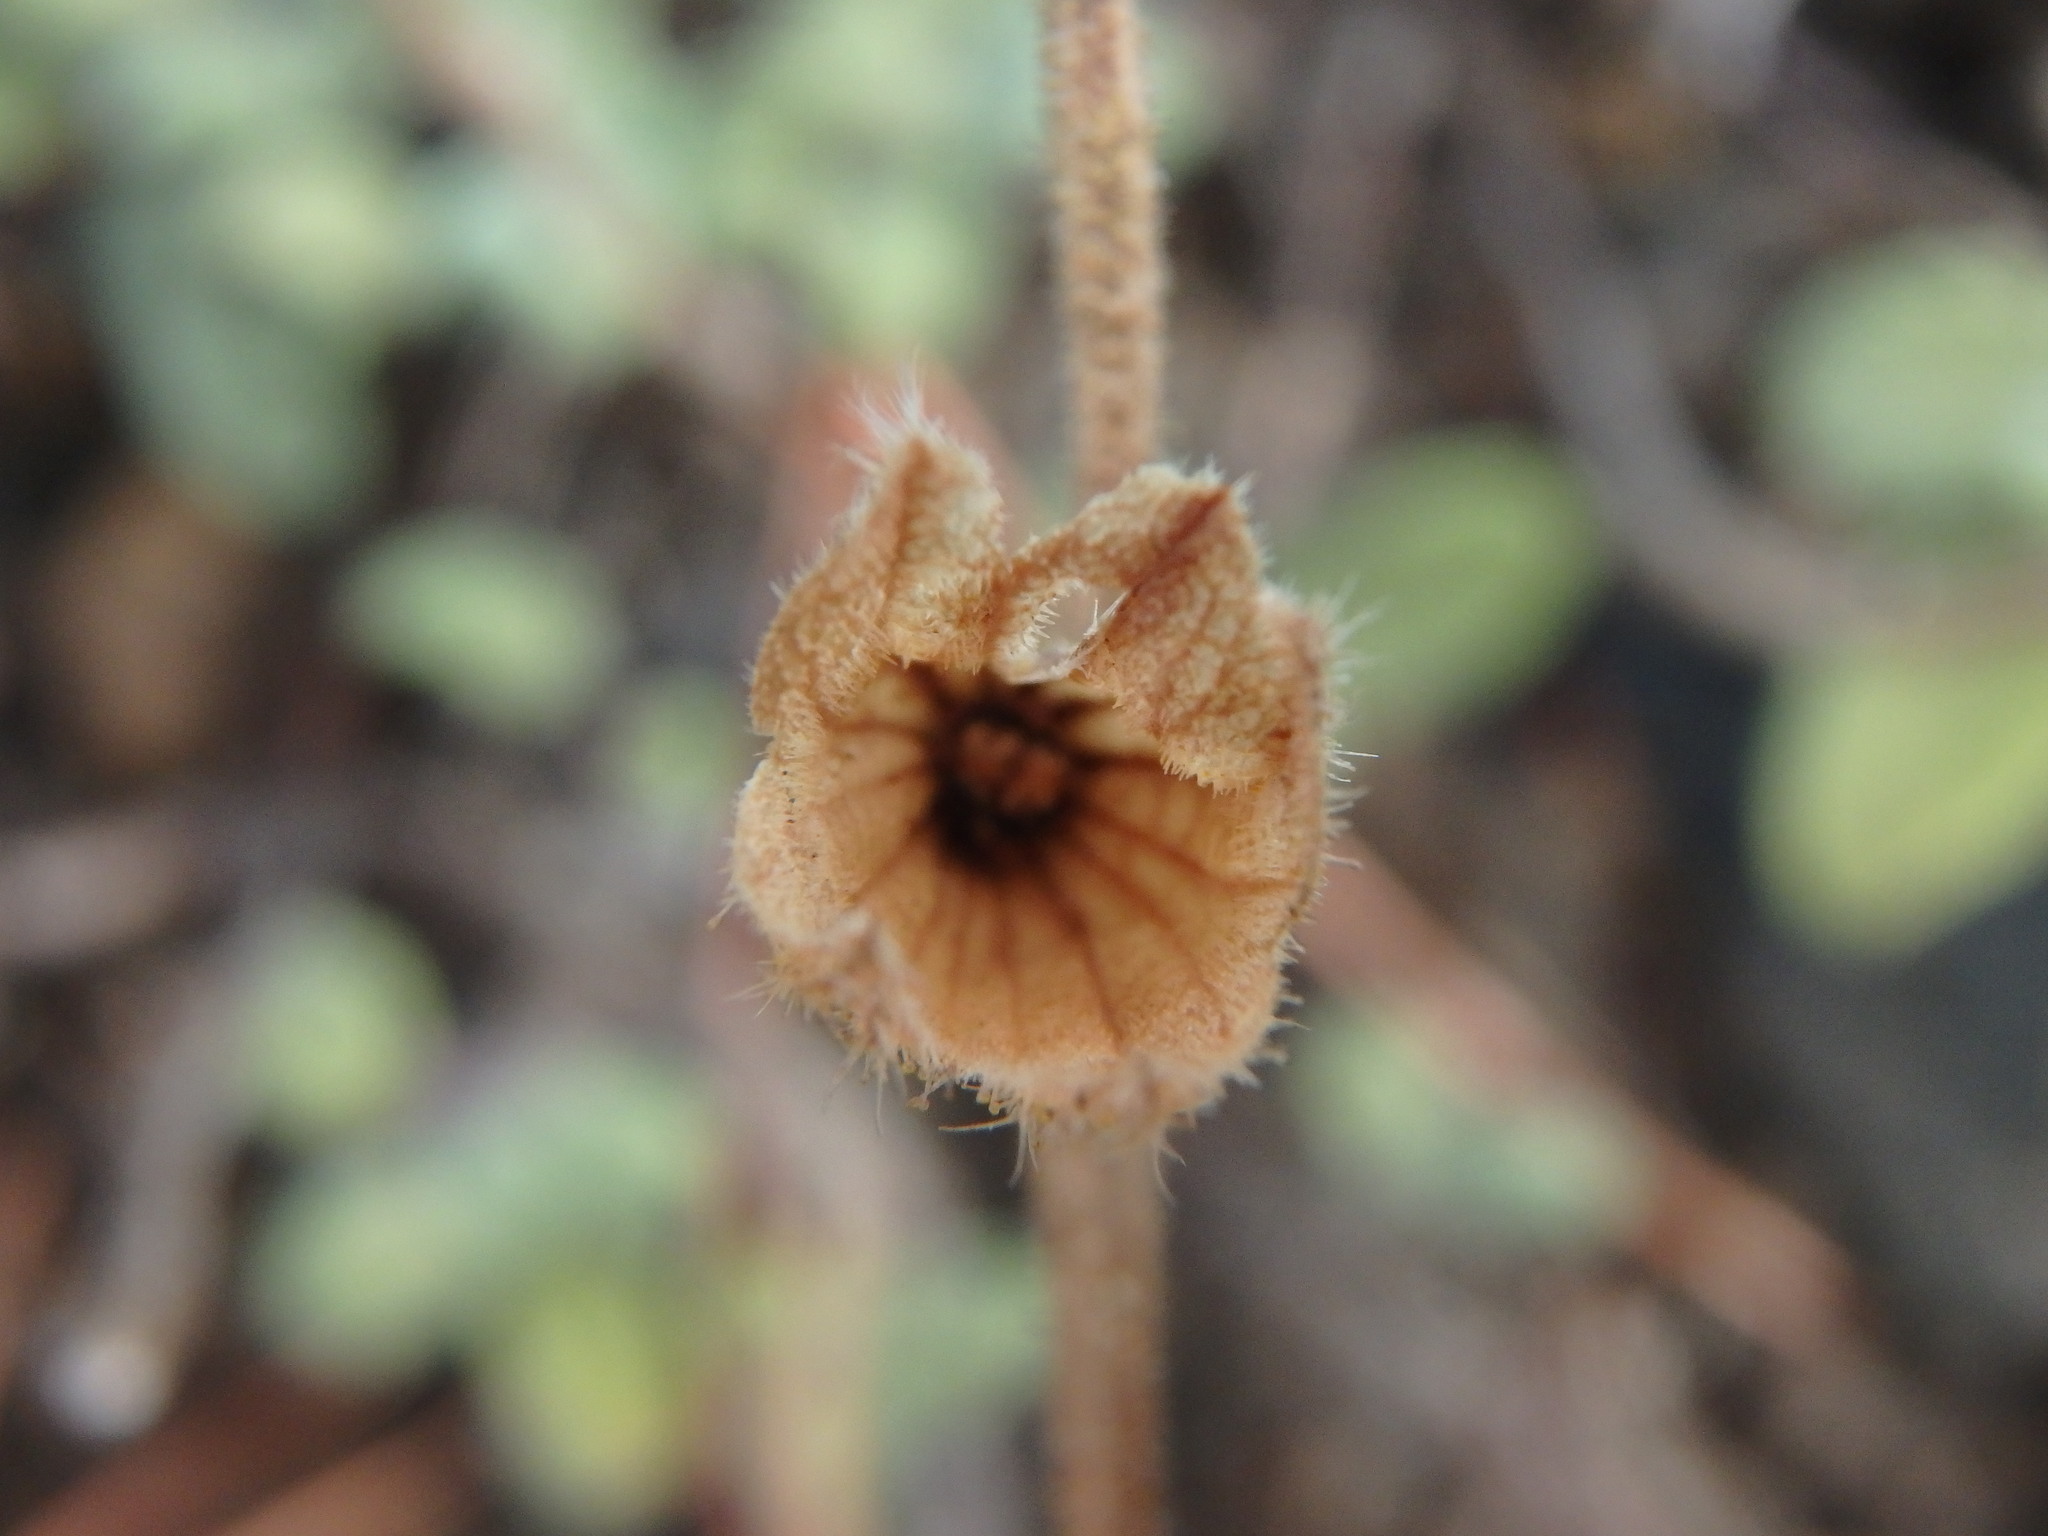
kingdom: Plantae
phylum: Tracheophyta
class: Magnoliopsida
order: Lamiales
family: Lamiaceae
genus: Salvia
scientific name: Salvia willeana
